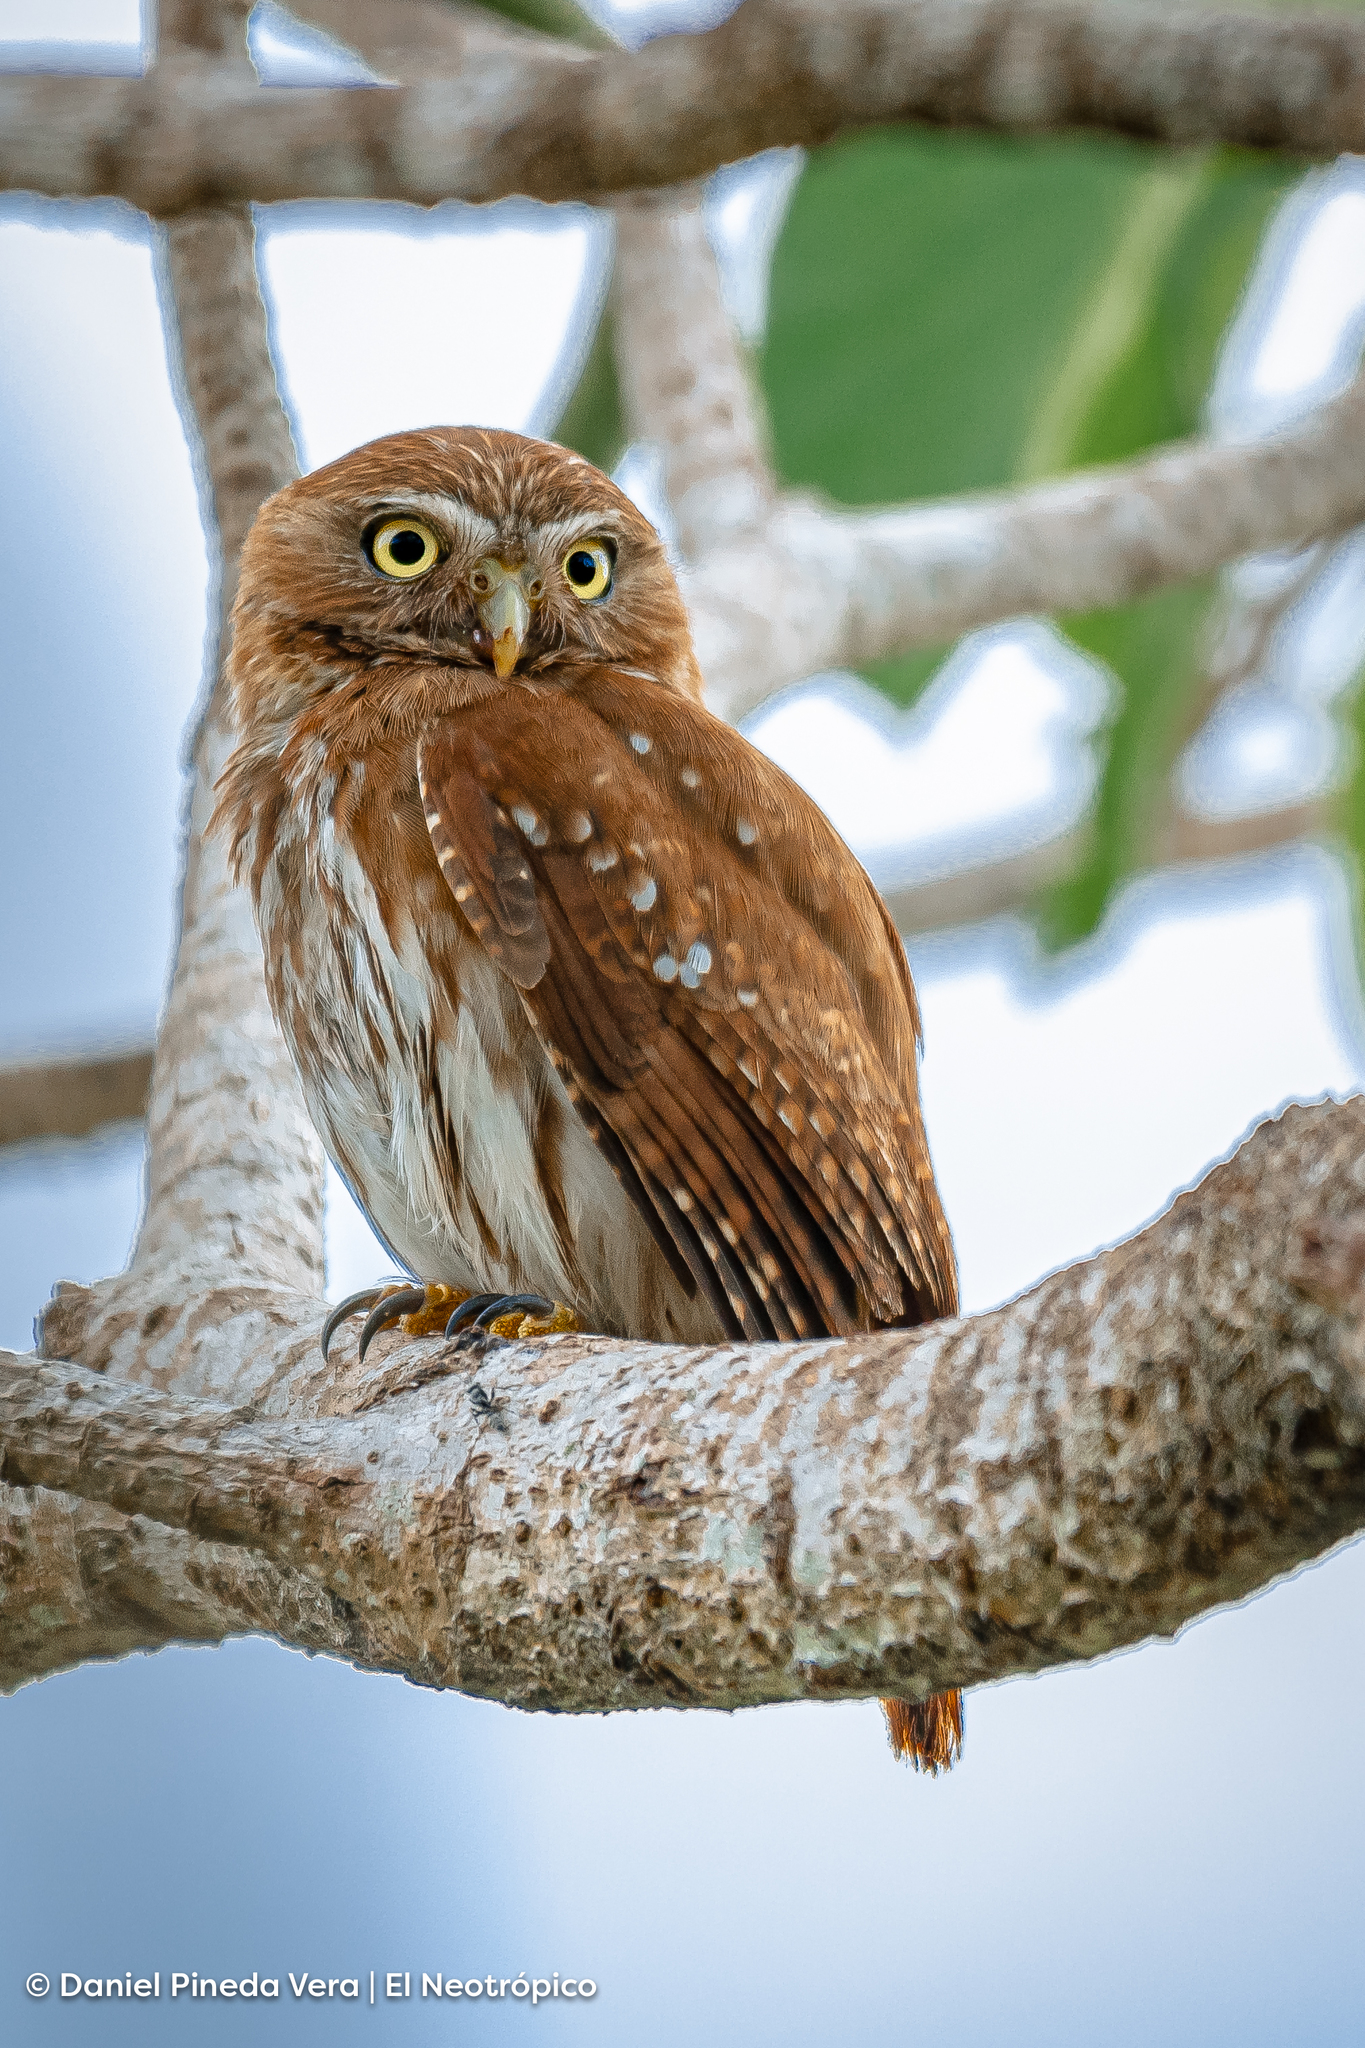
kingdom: Animalia
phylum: Chordata
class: Aves
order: Strigiformes
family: Strigidae
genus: Glaucidium
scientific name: Glaucidium brasilianum
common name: Ferruginous pygmy-owl
